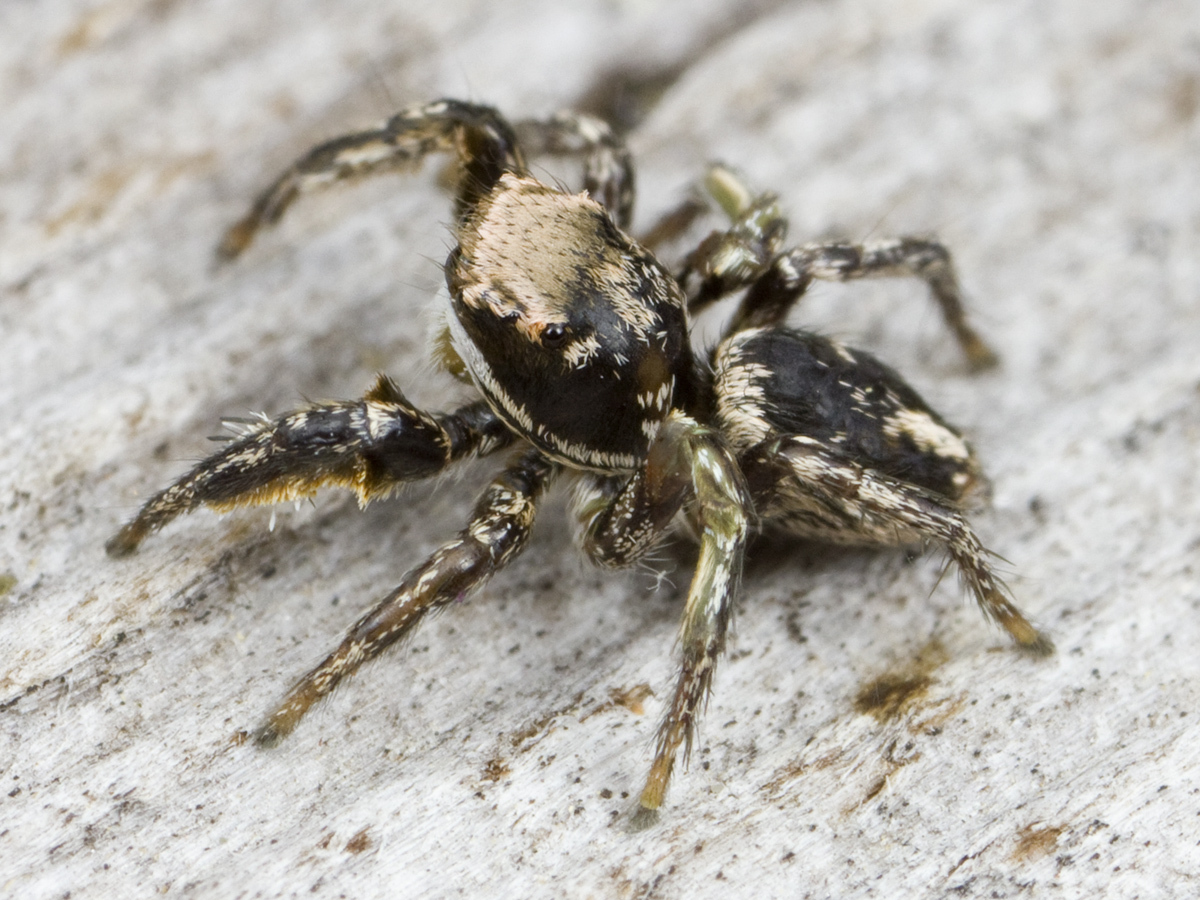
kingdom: Animalia
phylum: Arthropoda
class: Arachnida
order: Araneae
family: Salticidae
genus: Habronattus
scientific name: Habronattus klauseri
